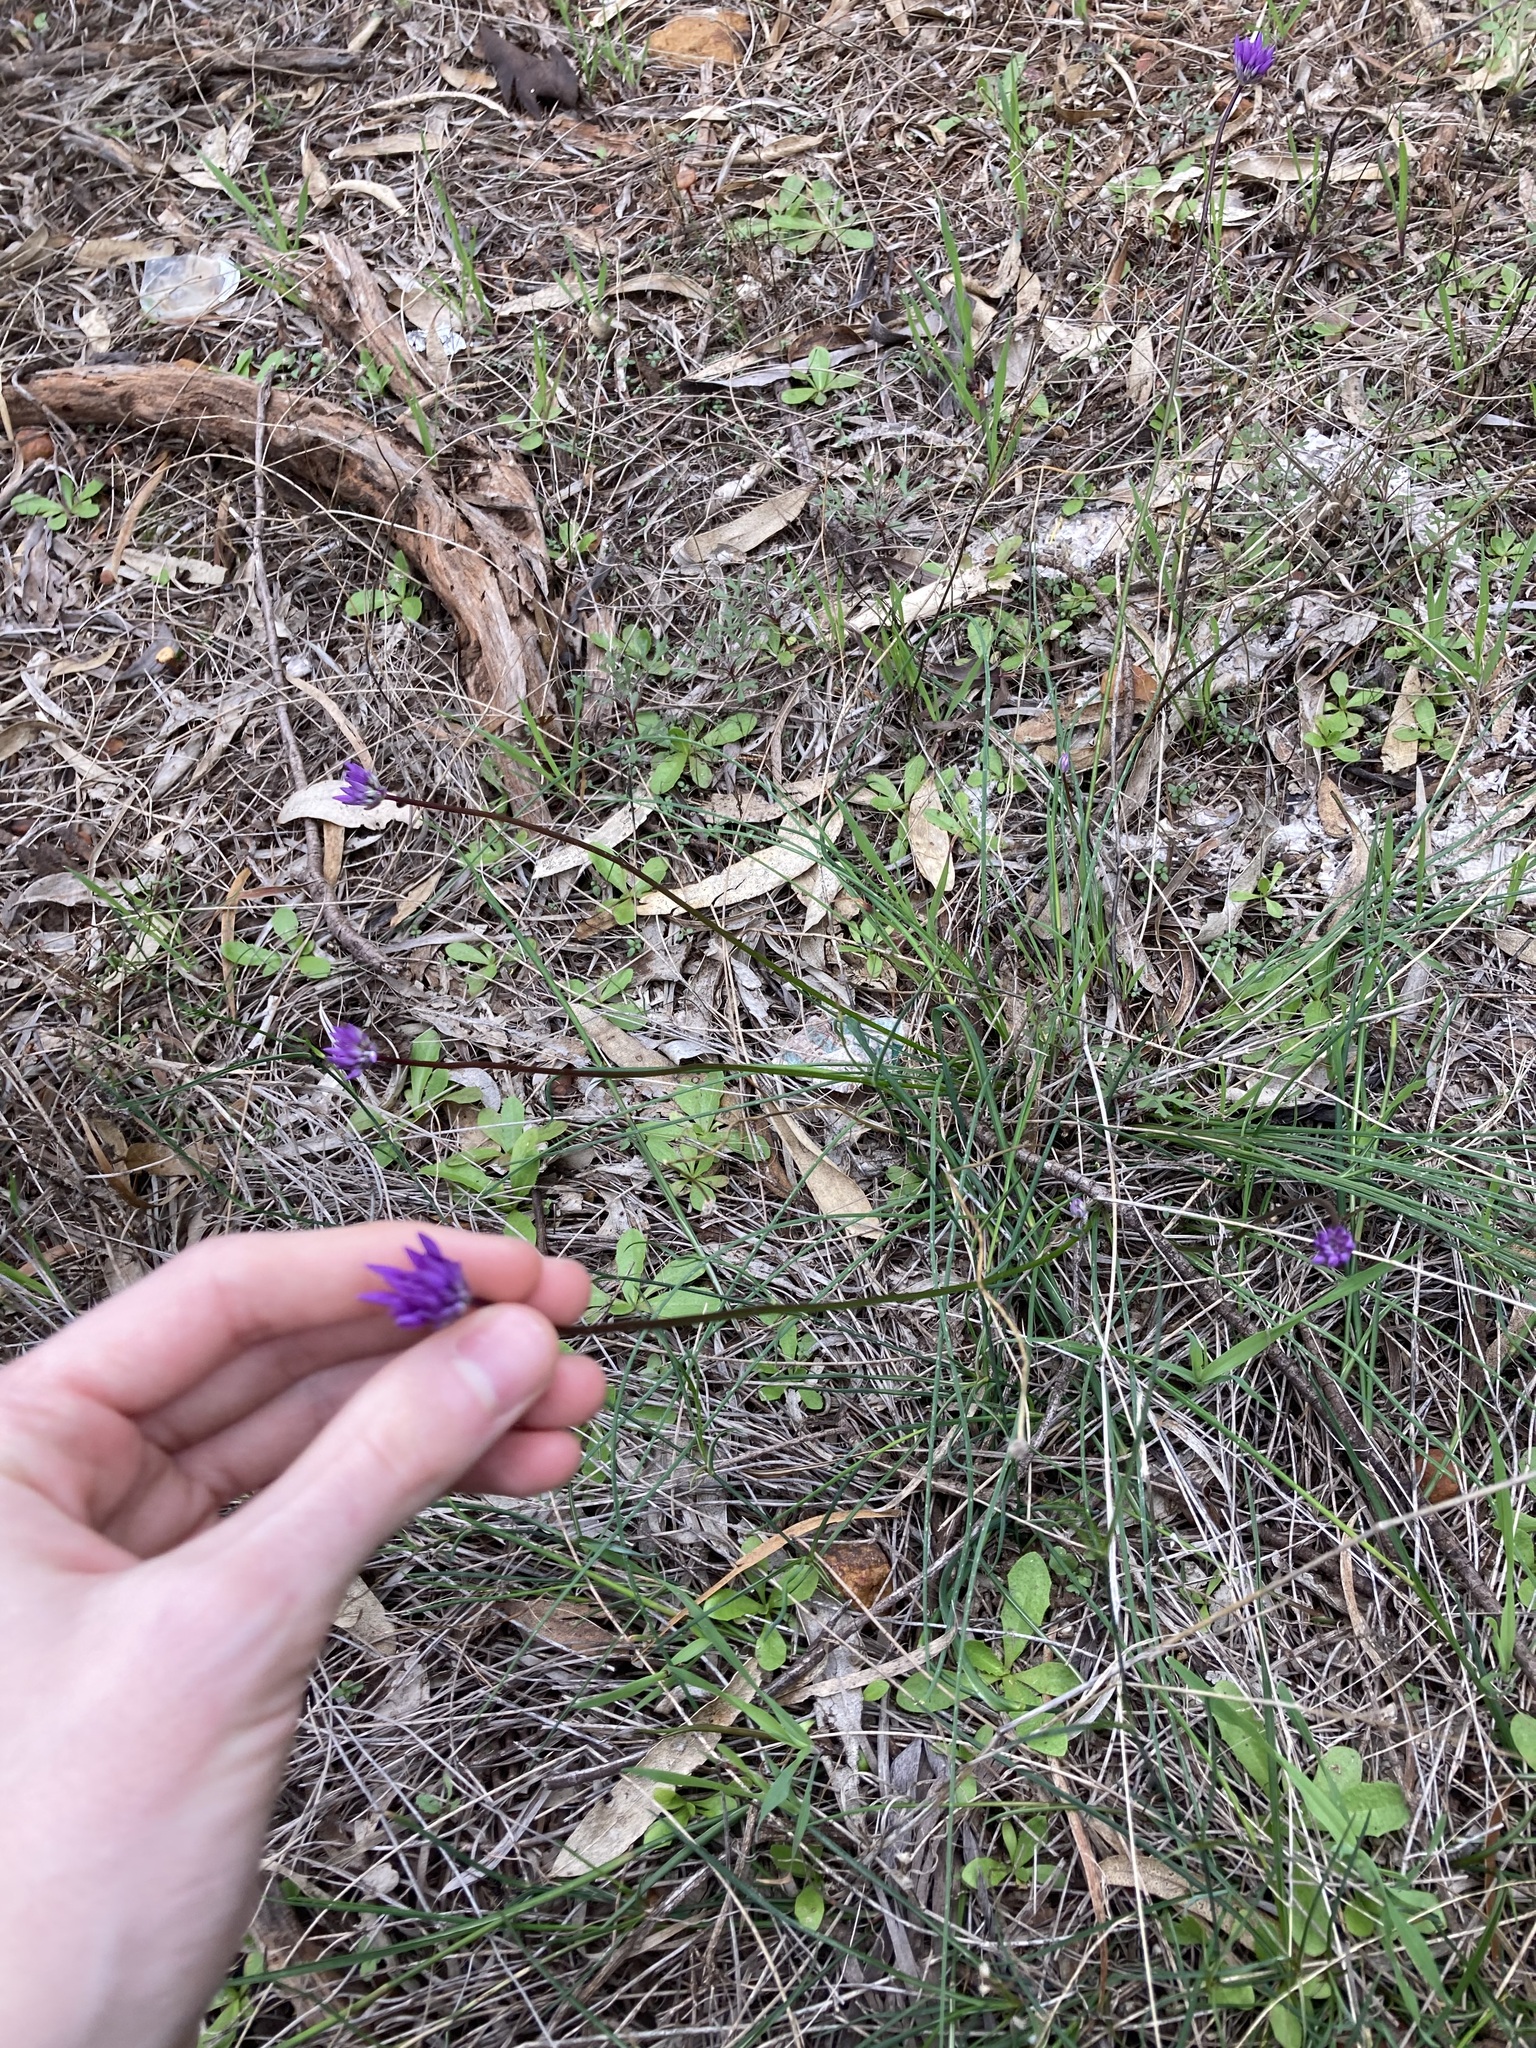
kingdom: Plantae
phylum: Tracheophyta
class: Liliopsida
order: Asparagales
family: Asparagaceae
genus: Sowerbaea
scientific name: Sowerbaea laxiflora
